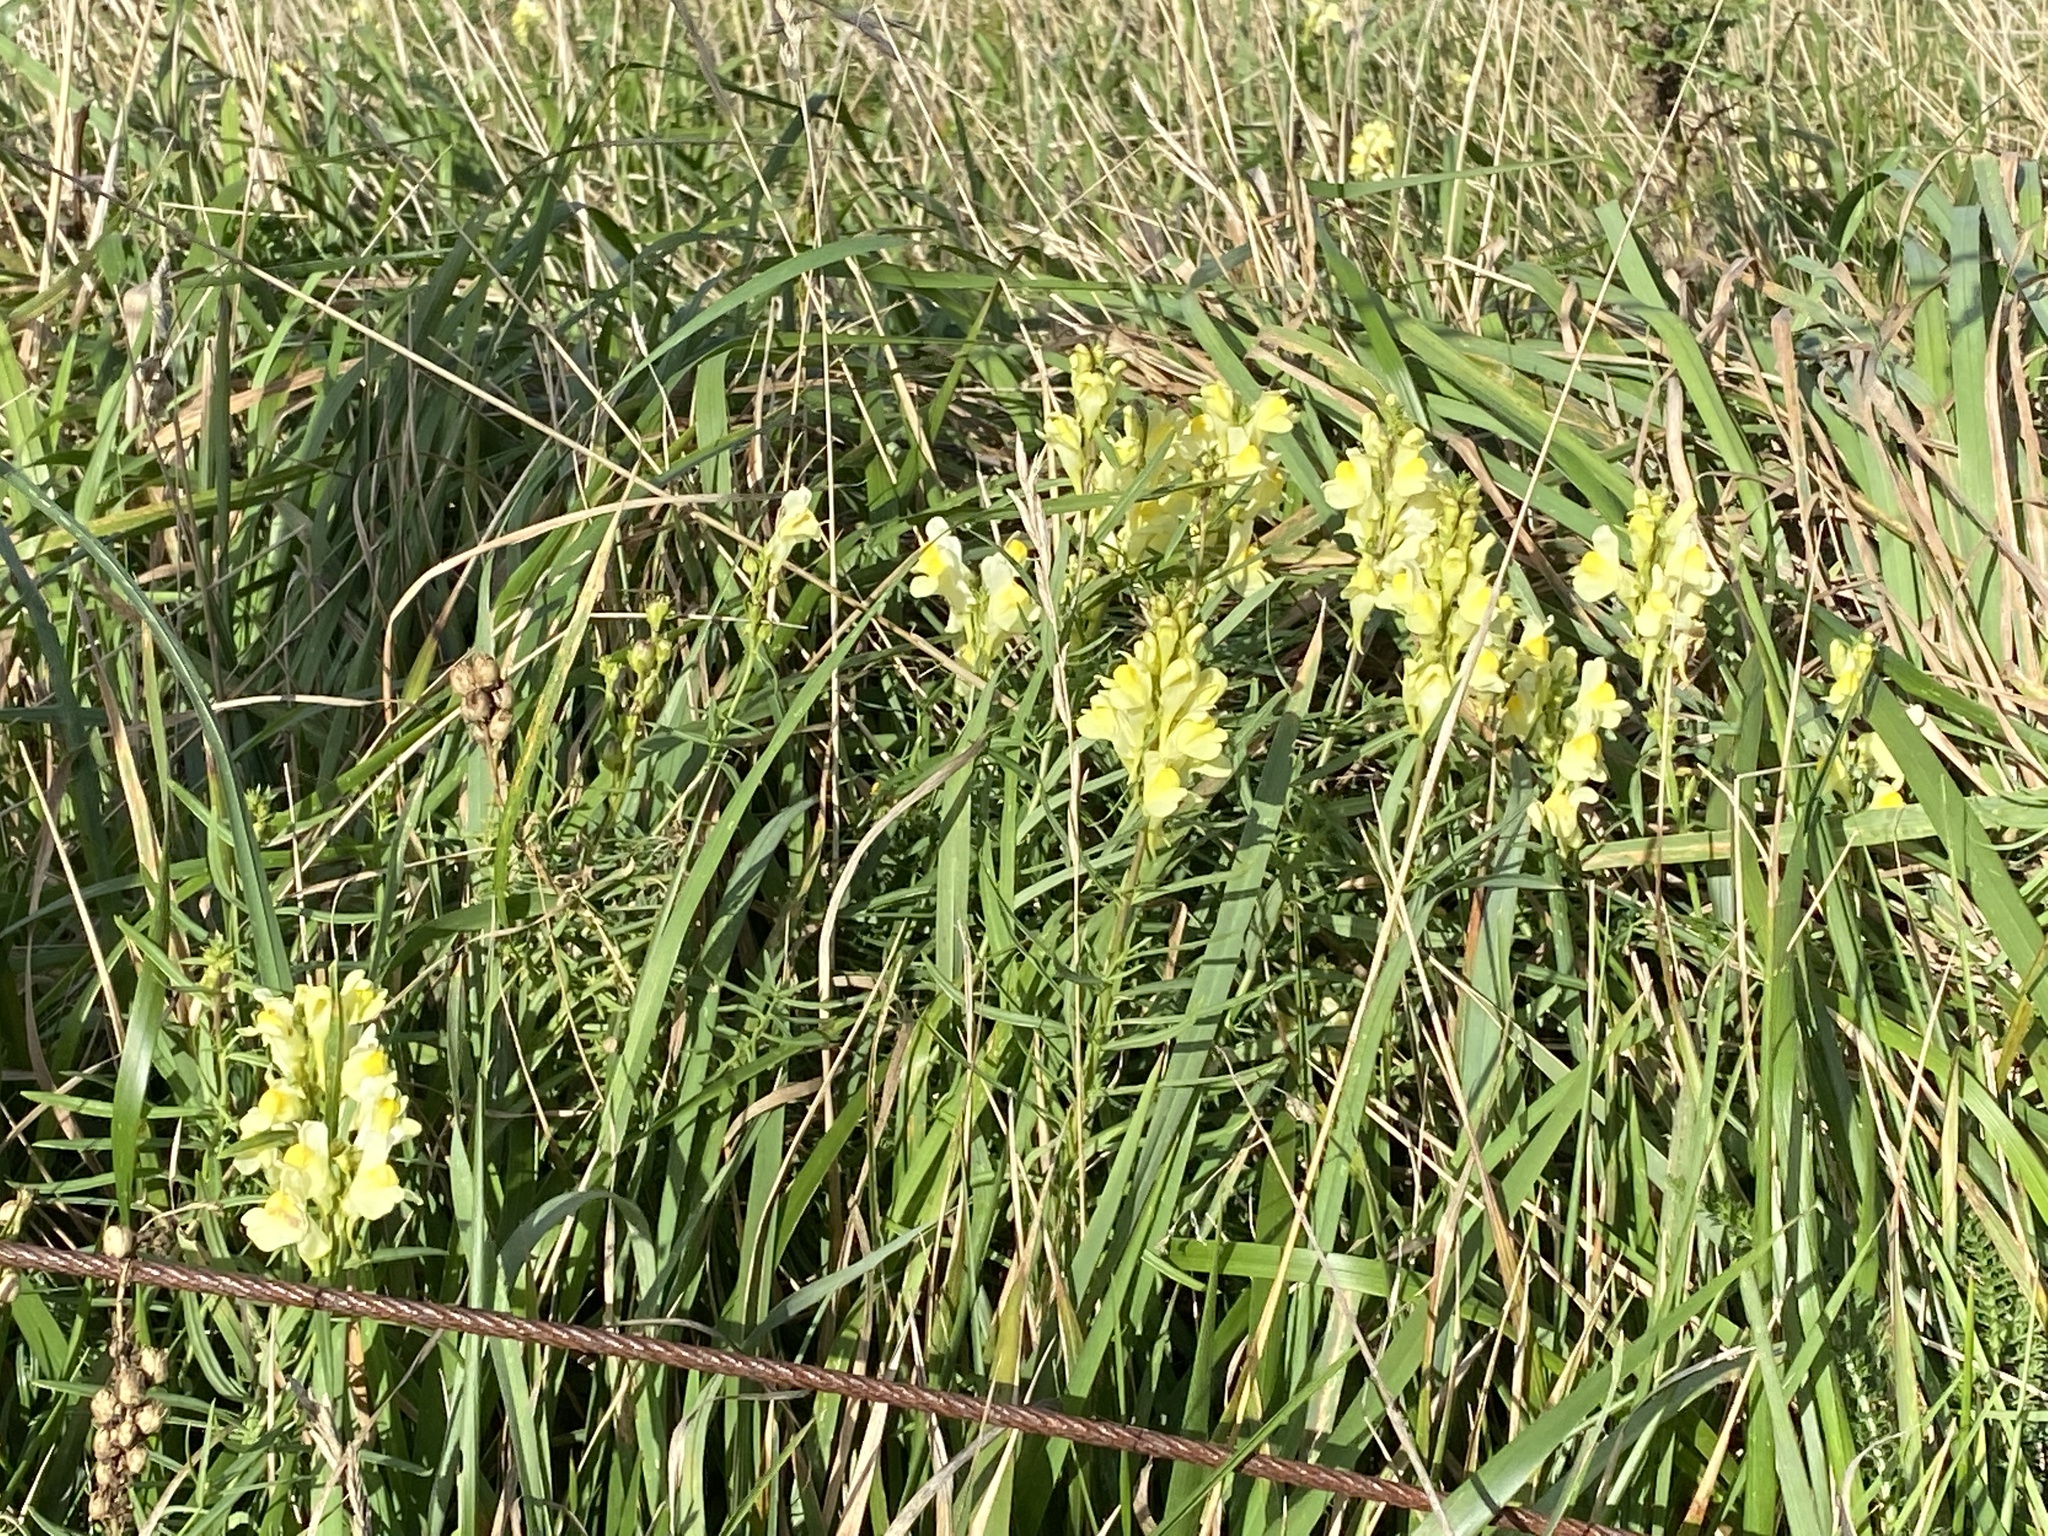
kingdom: Plantae
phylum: Tracheophyta
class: Magnoliopsida
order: Lamiales
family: Plantaginaceae
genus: Linaria
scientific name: Linaria vulgaris
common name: Butter and eggs
